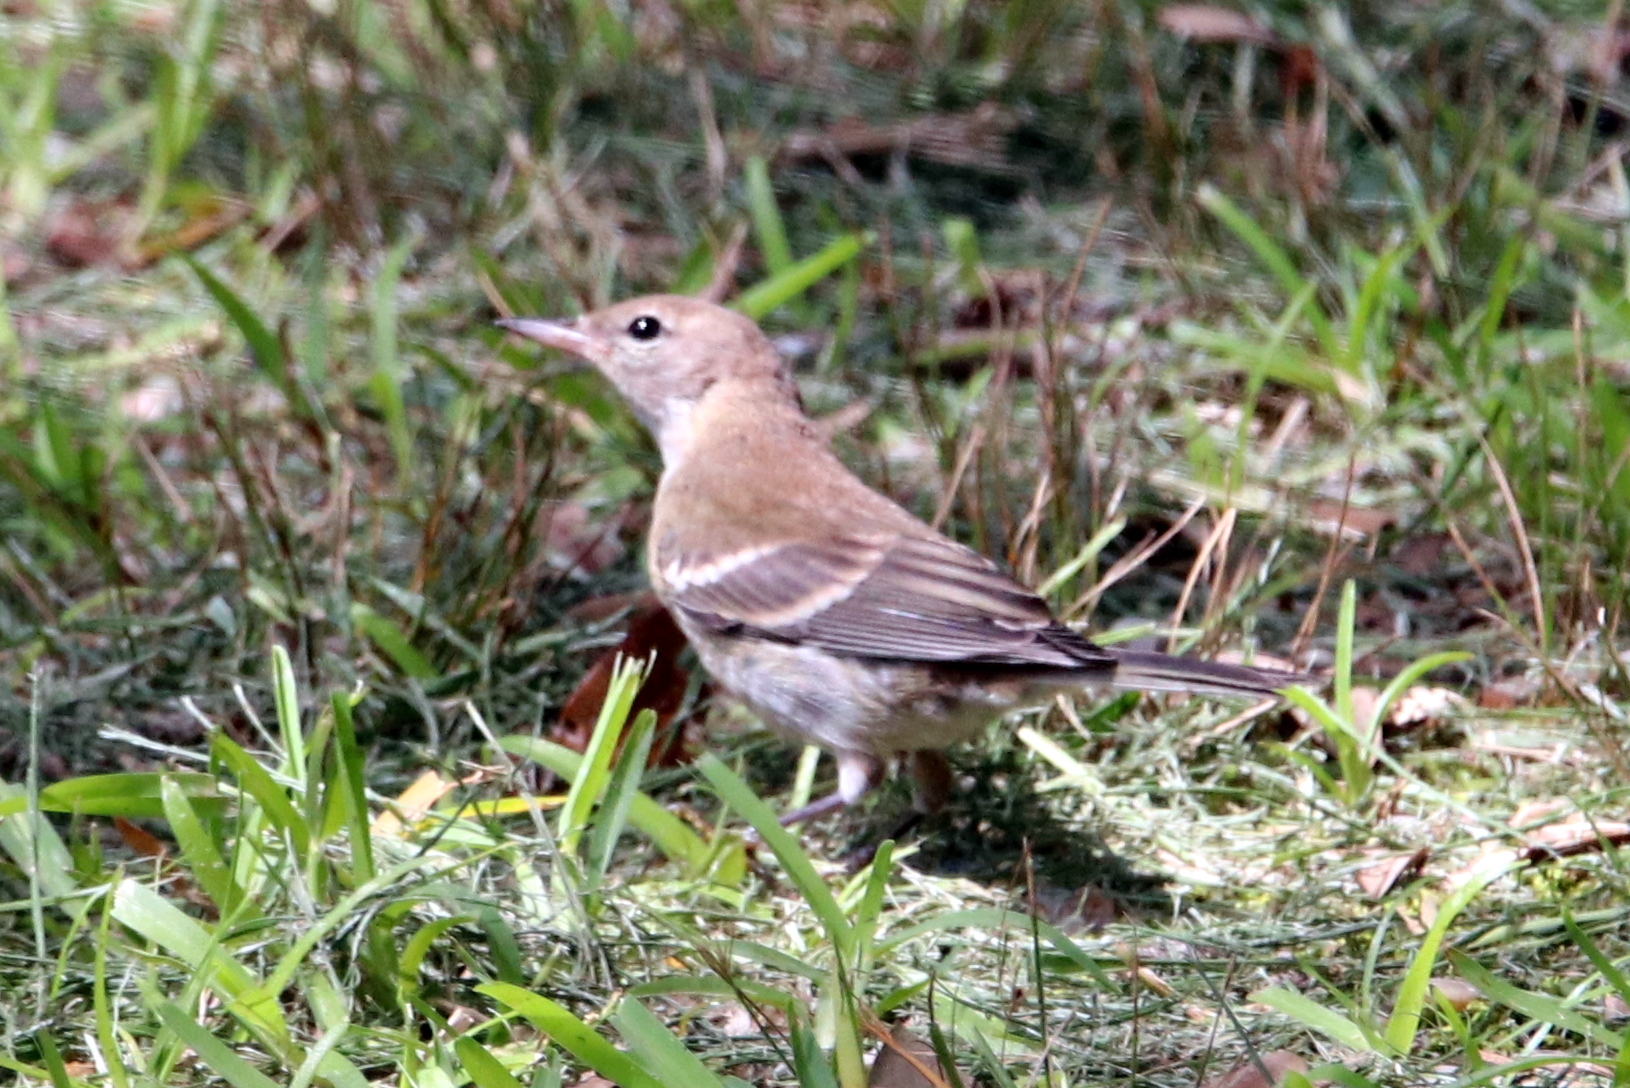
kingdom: Animalia
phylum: Chordata
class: Aves
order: Passeriformes
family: Parulidae
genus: Setophaga
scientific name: Setophaga pinus
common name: Pine warbler
